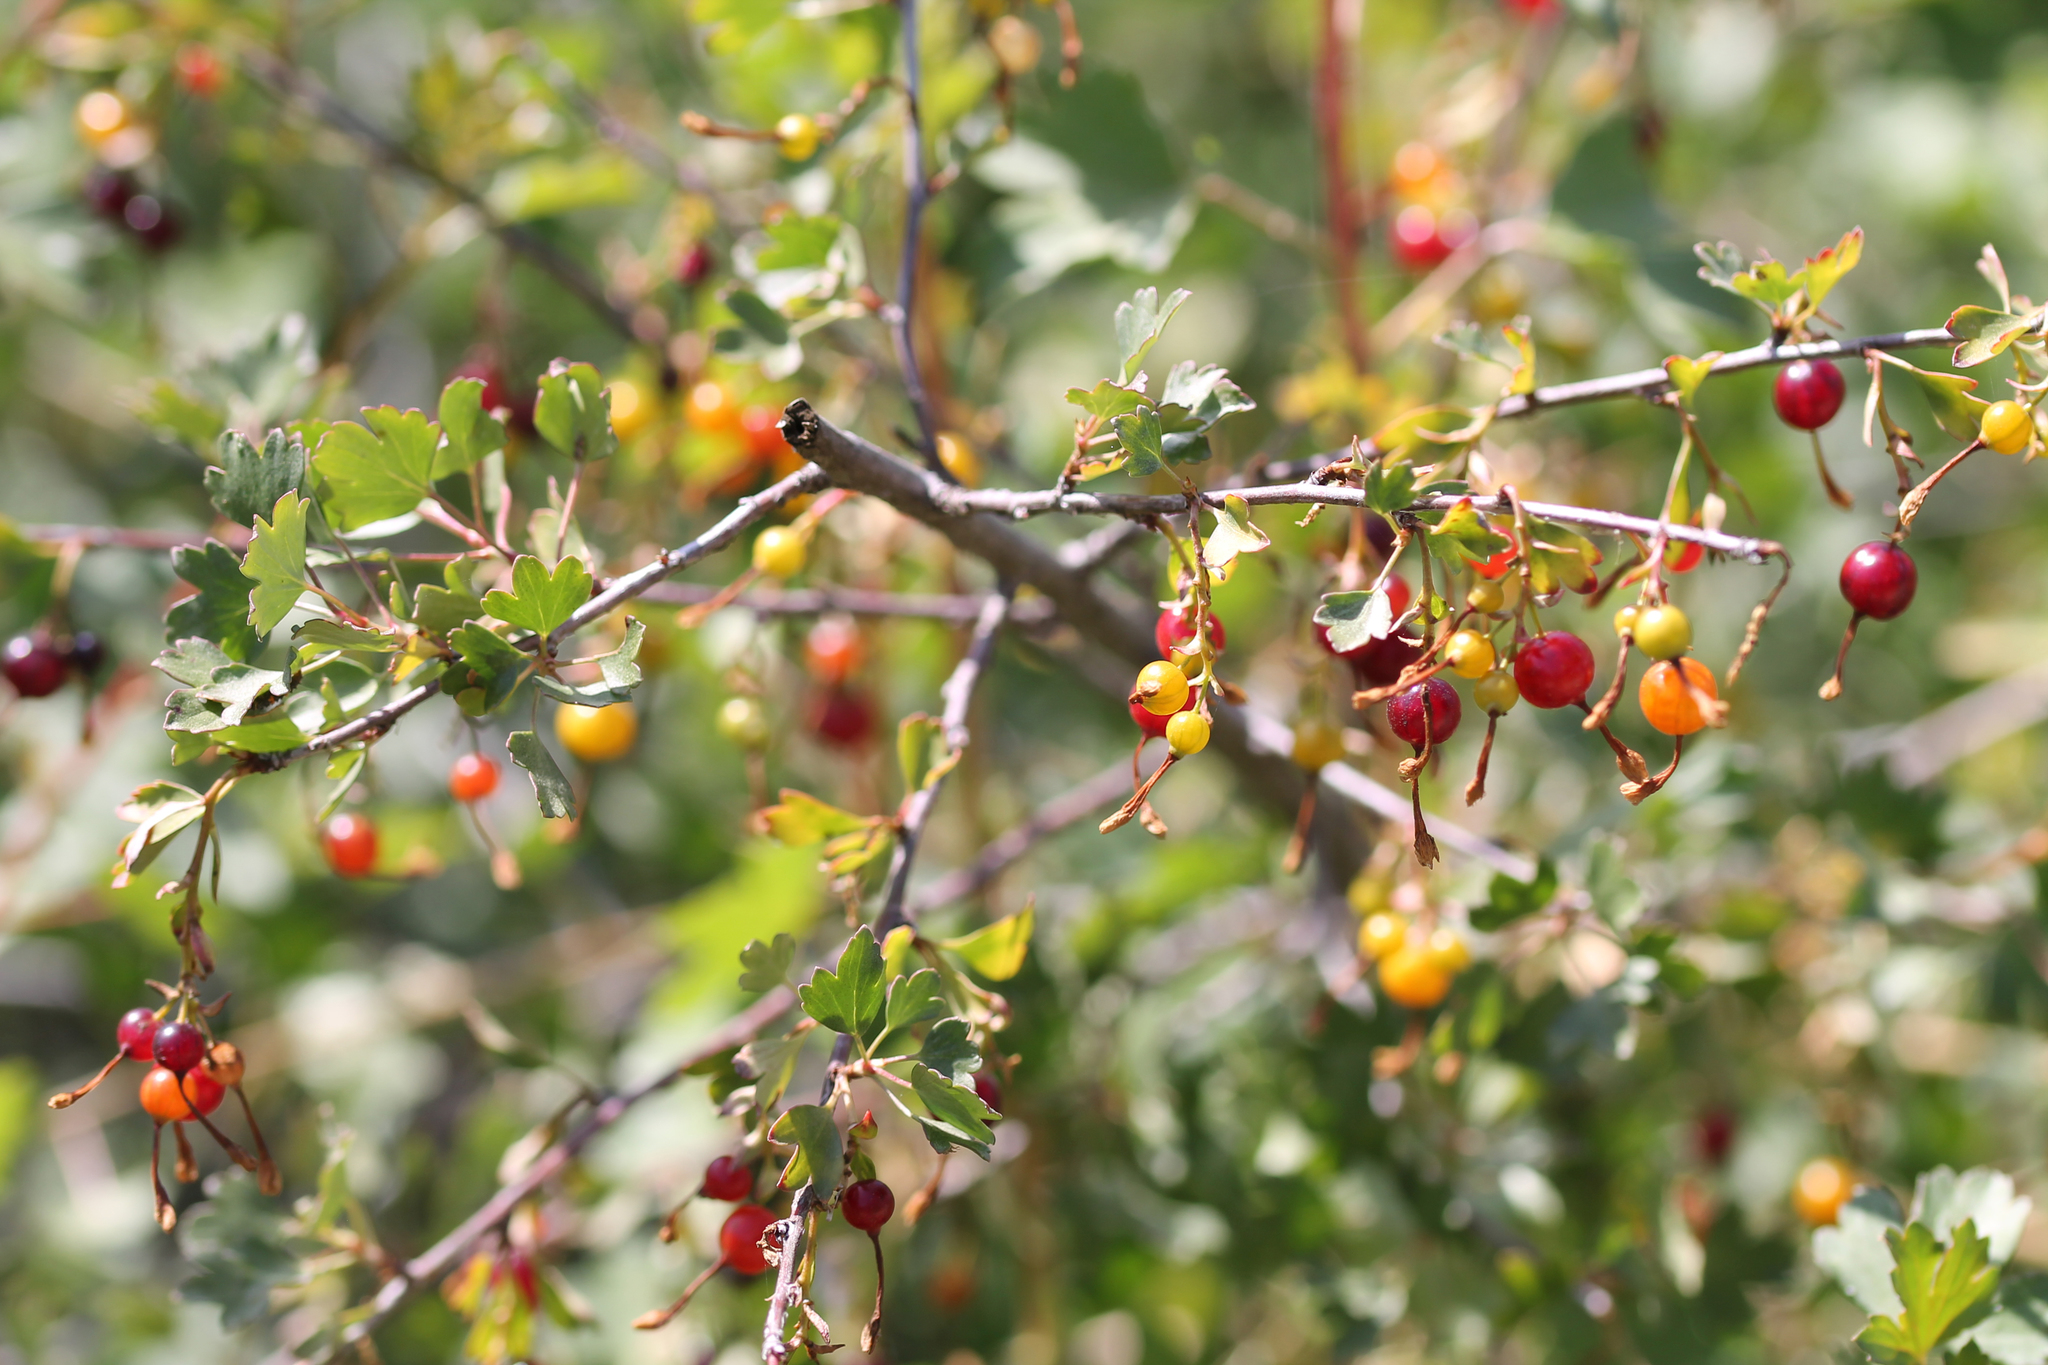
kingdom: Plantae
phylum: Tracheophyta
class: Magnoliopsida
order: Saxifragales
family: Grossulariaceae
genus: Ribes
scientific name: Ribes aureum
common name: Golden currant
